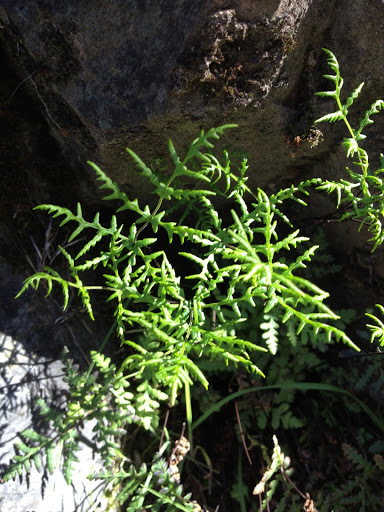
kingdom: Plantae
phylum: Tracheophyta
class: Polypodiopsida
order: Polypodiales
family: Pteridaceae
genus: Pentagramma
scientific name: Pentagramma triangularis
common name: Gold fern
